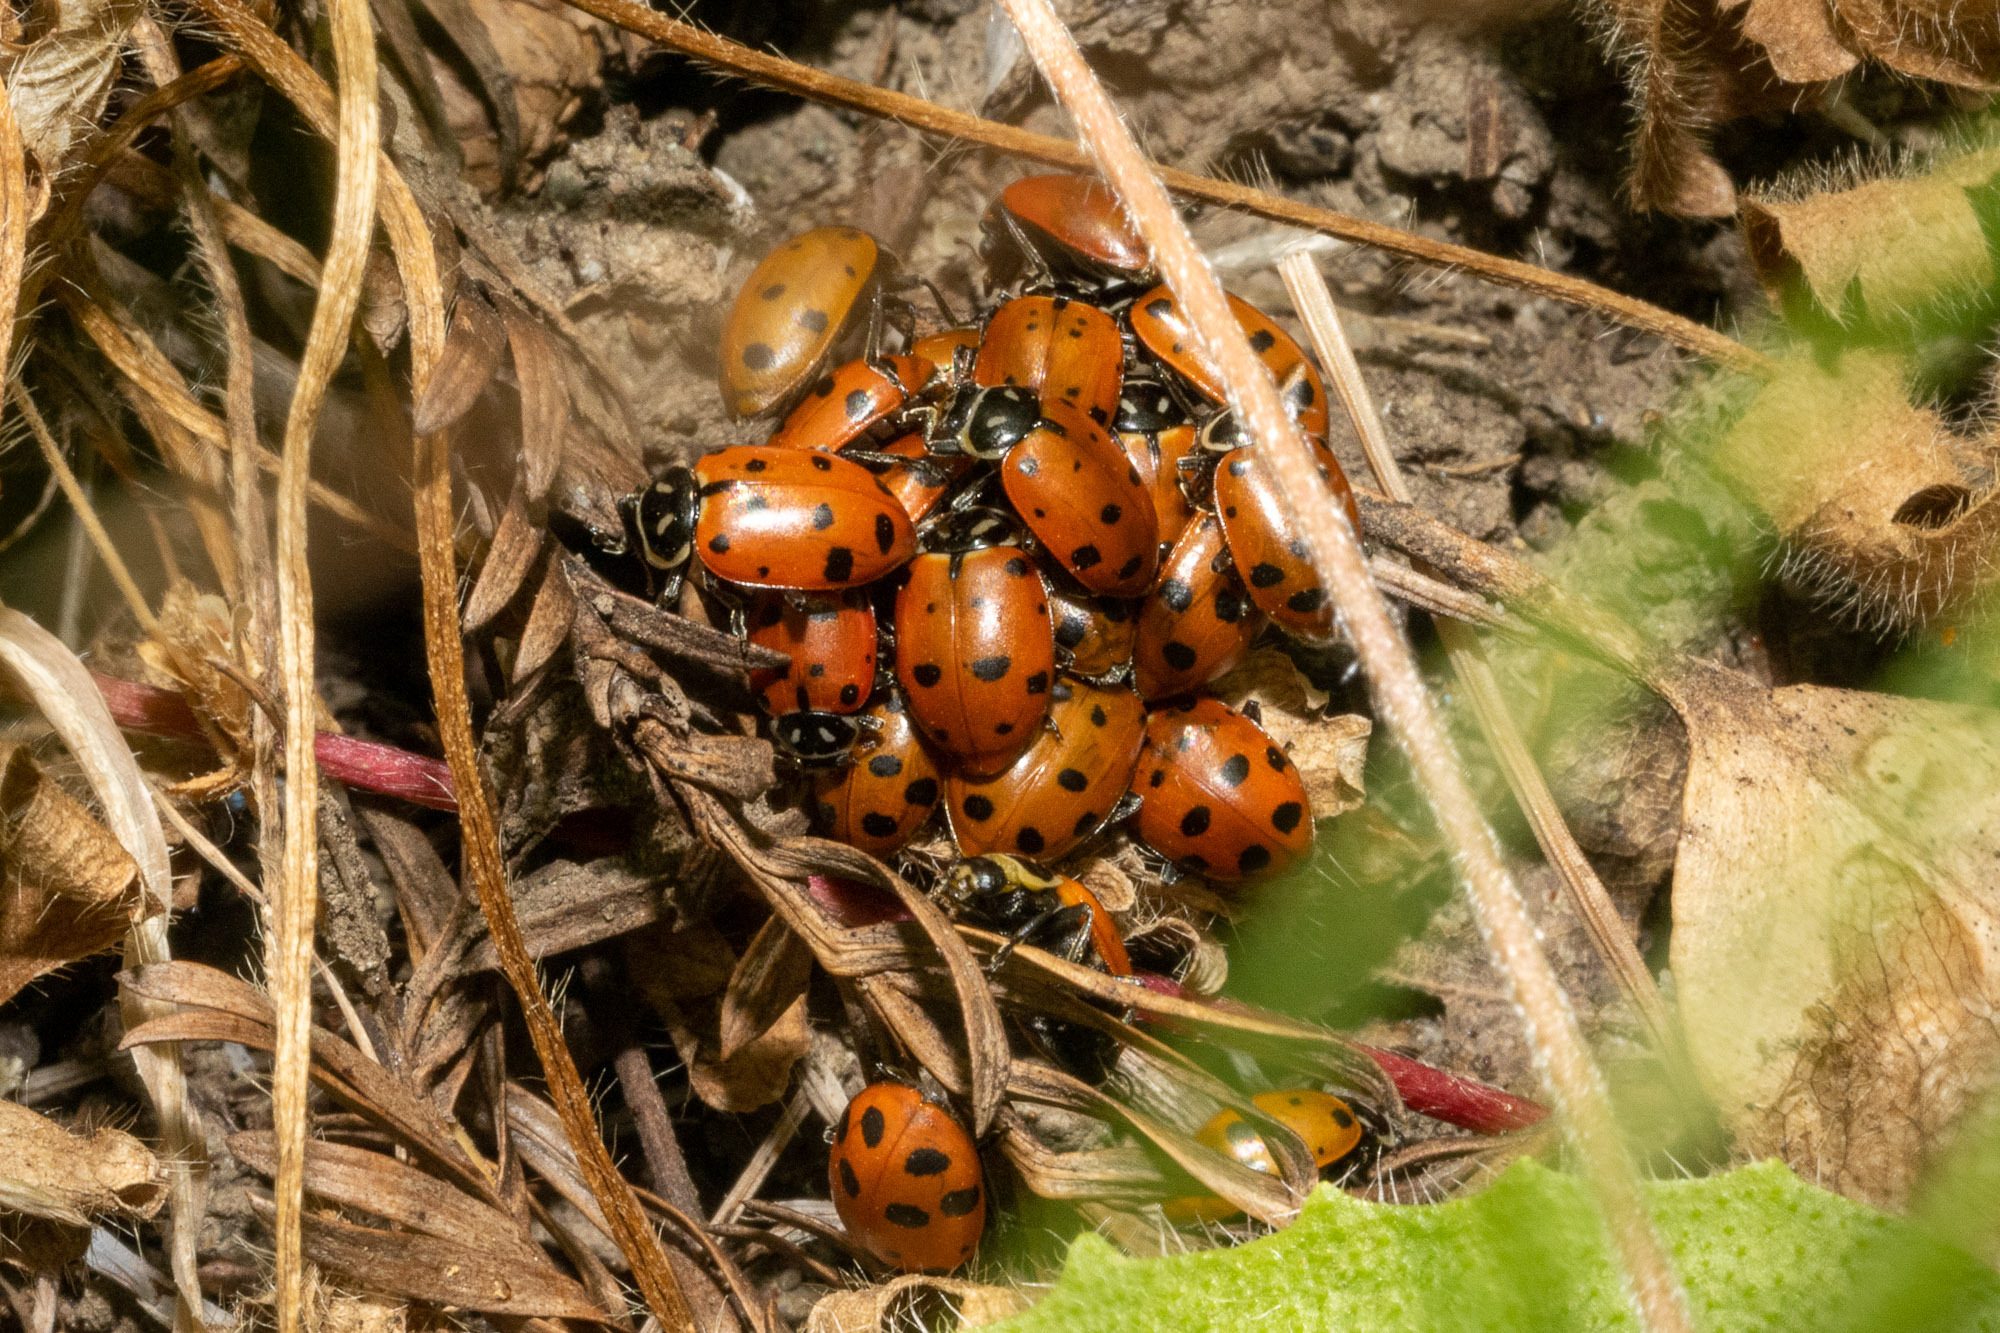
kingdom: Animalia
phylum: Arthropoda
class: Insecta
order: Coleoptera
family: Coccinellidae
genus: Hippodamia
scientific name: Hippodamia convergens
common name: Convergent lady beetle
